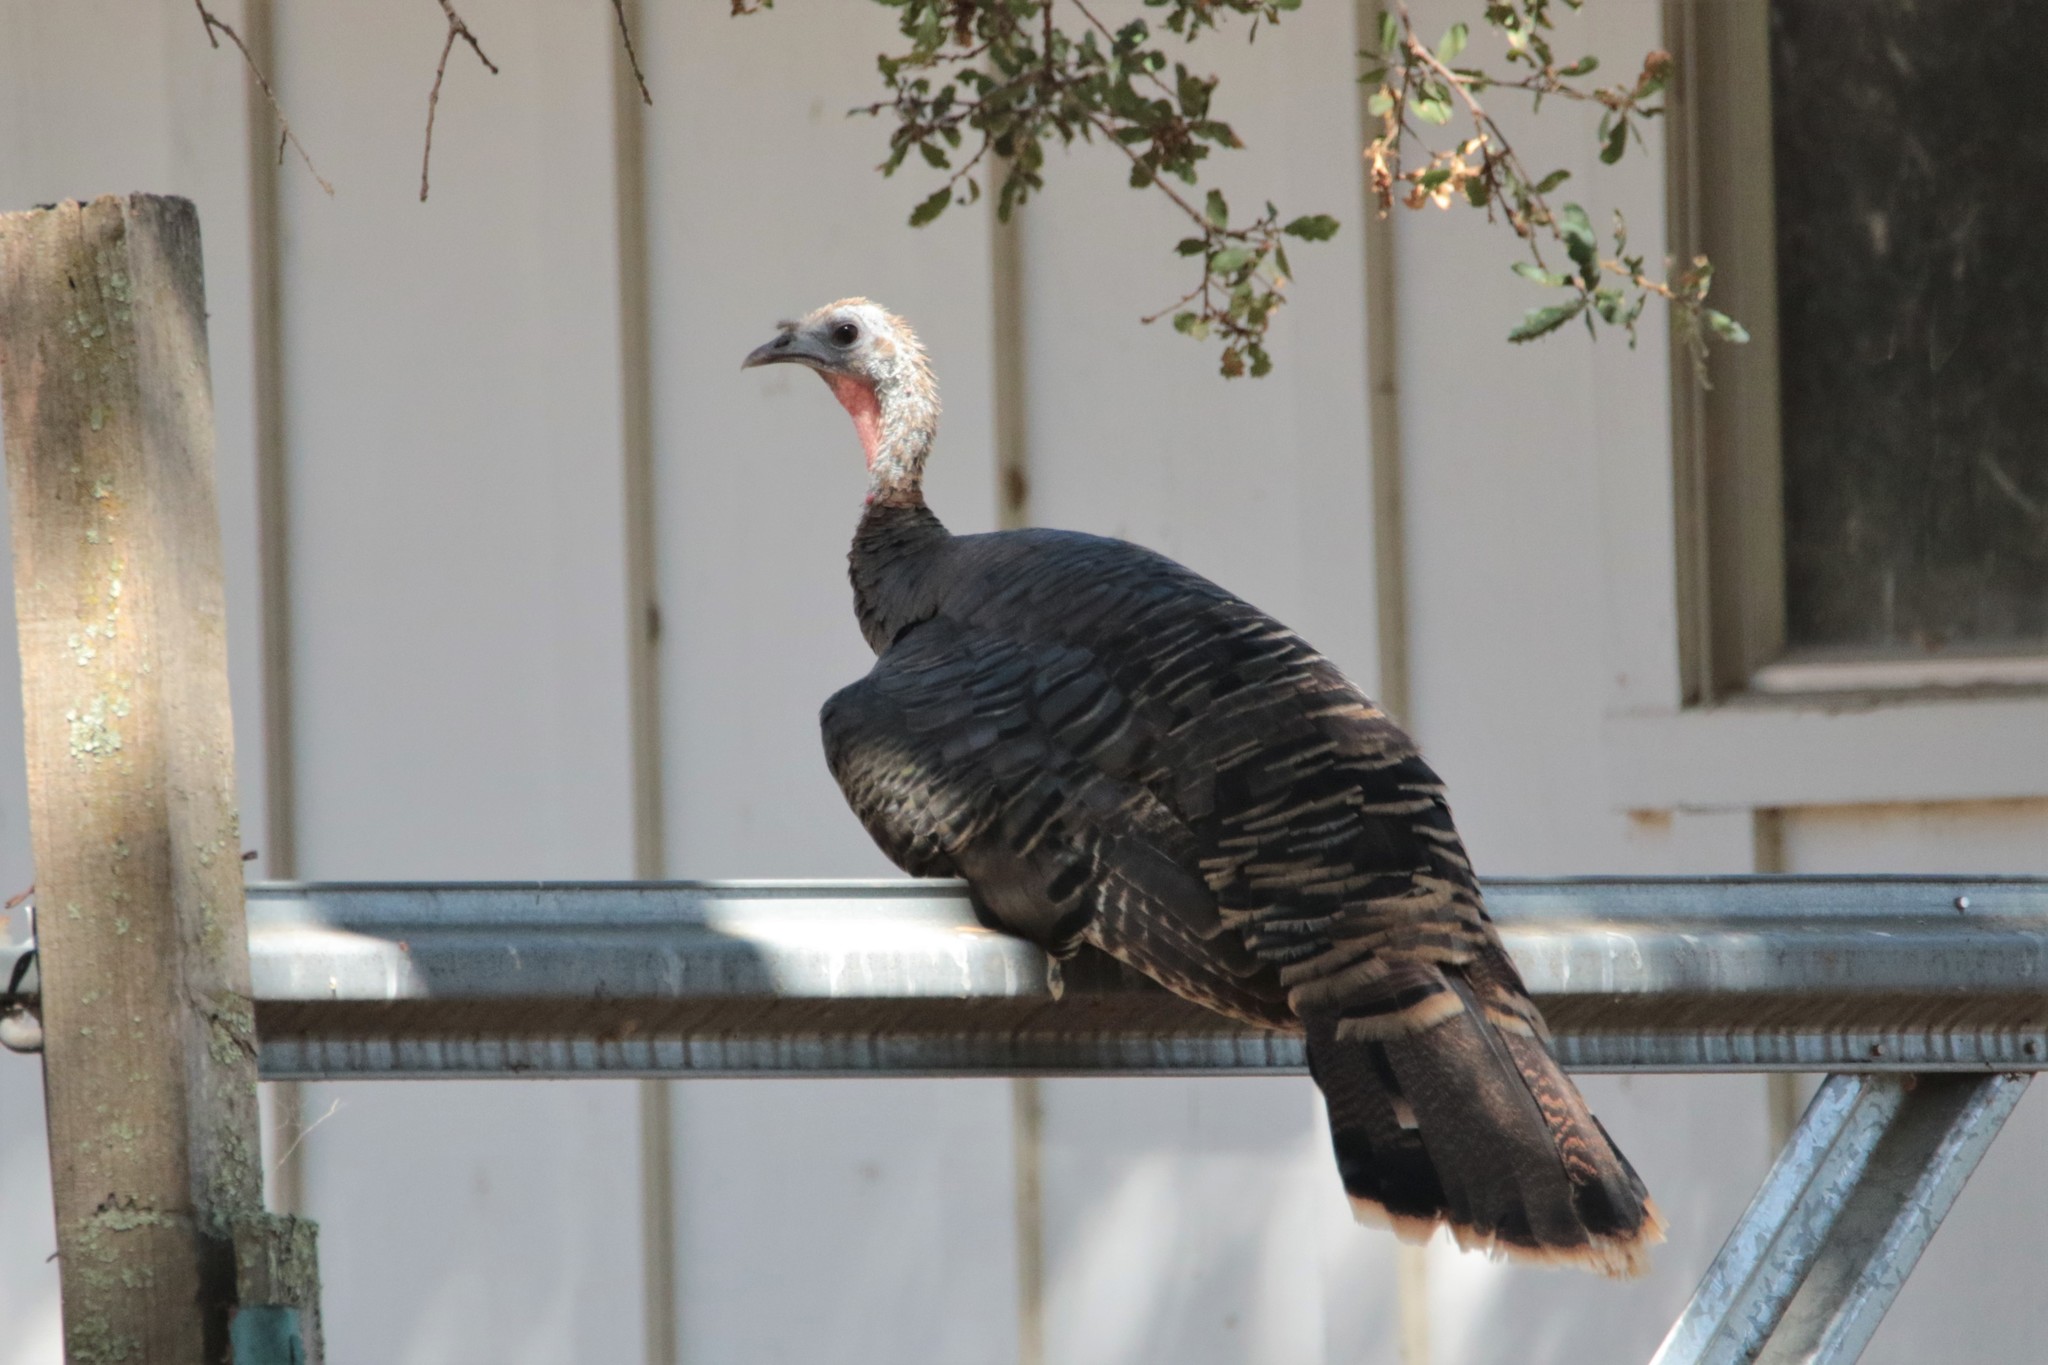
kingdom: Animalia
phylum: Chordata
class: Aves
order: Galliformes
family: Phasianidae
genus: Meleagris
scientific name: Meleagris gallopavo
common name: Wild turkey
